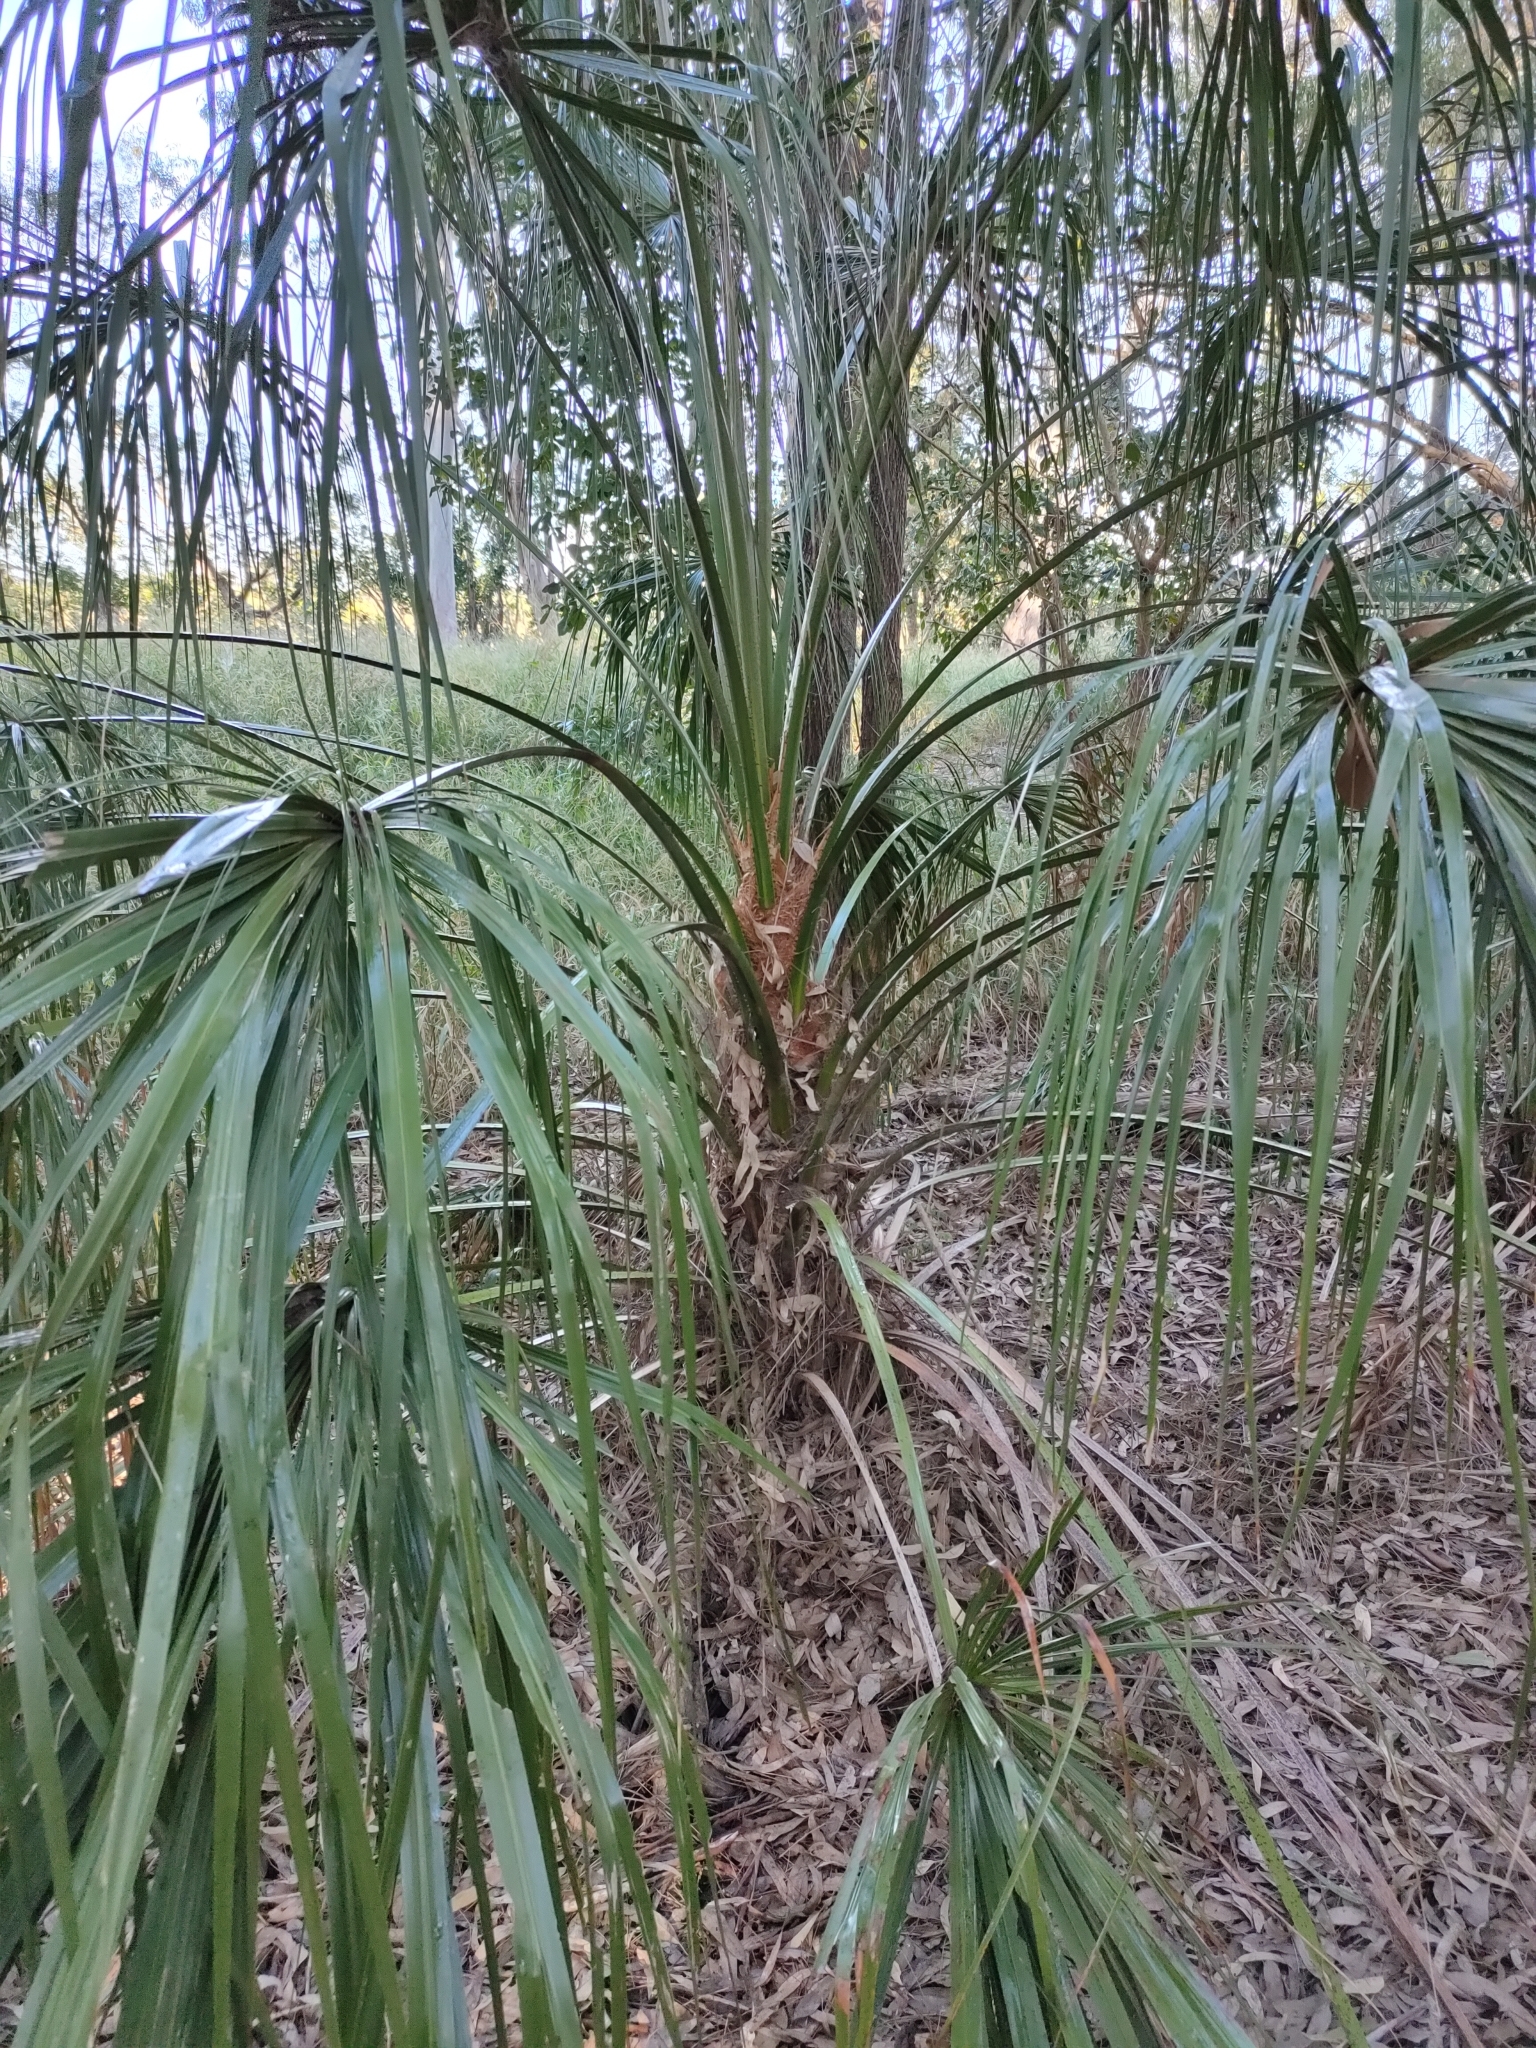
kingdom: Plantae
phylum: Tracheophyta
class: Liliopsida
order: Arecales
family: Arecaceae
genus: Livistona
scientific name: Livistona decora
